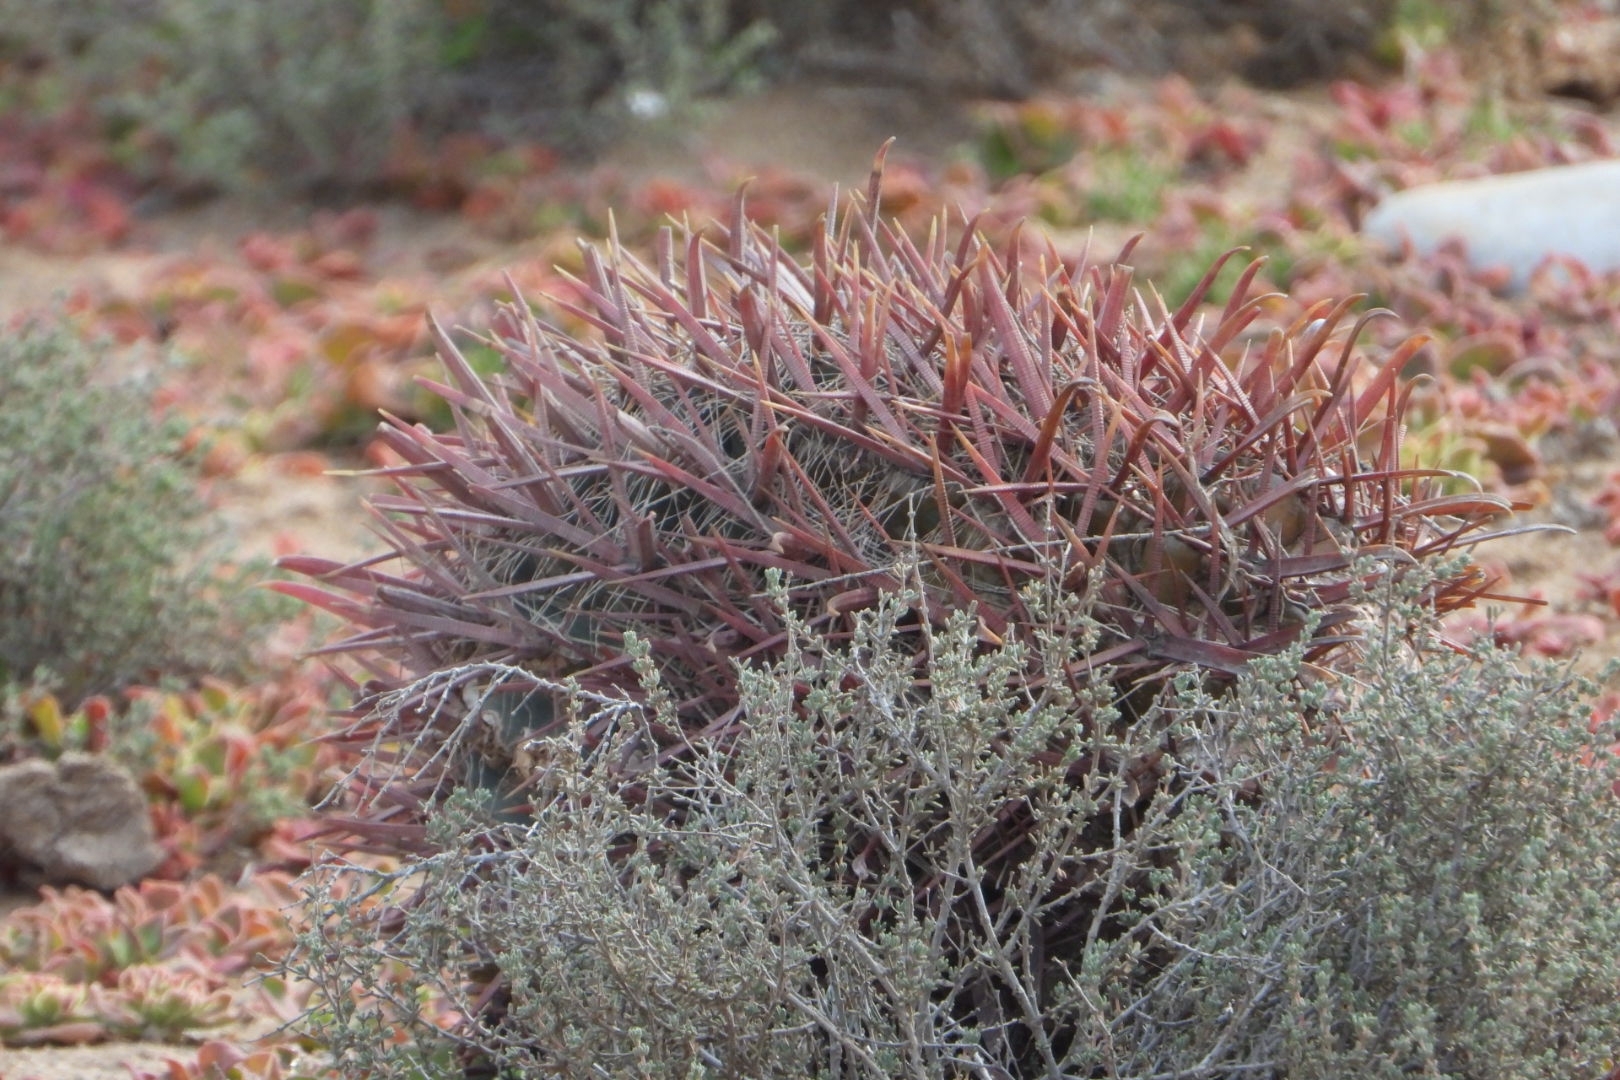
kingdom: Plantae
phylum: Tracheophyta
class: Magnoliopsida
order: Caryophyllales
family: Cactaceae
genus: Ferocactus
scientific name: Ferocactus gracilis
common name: Fire barrel cactus
